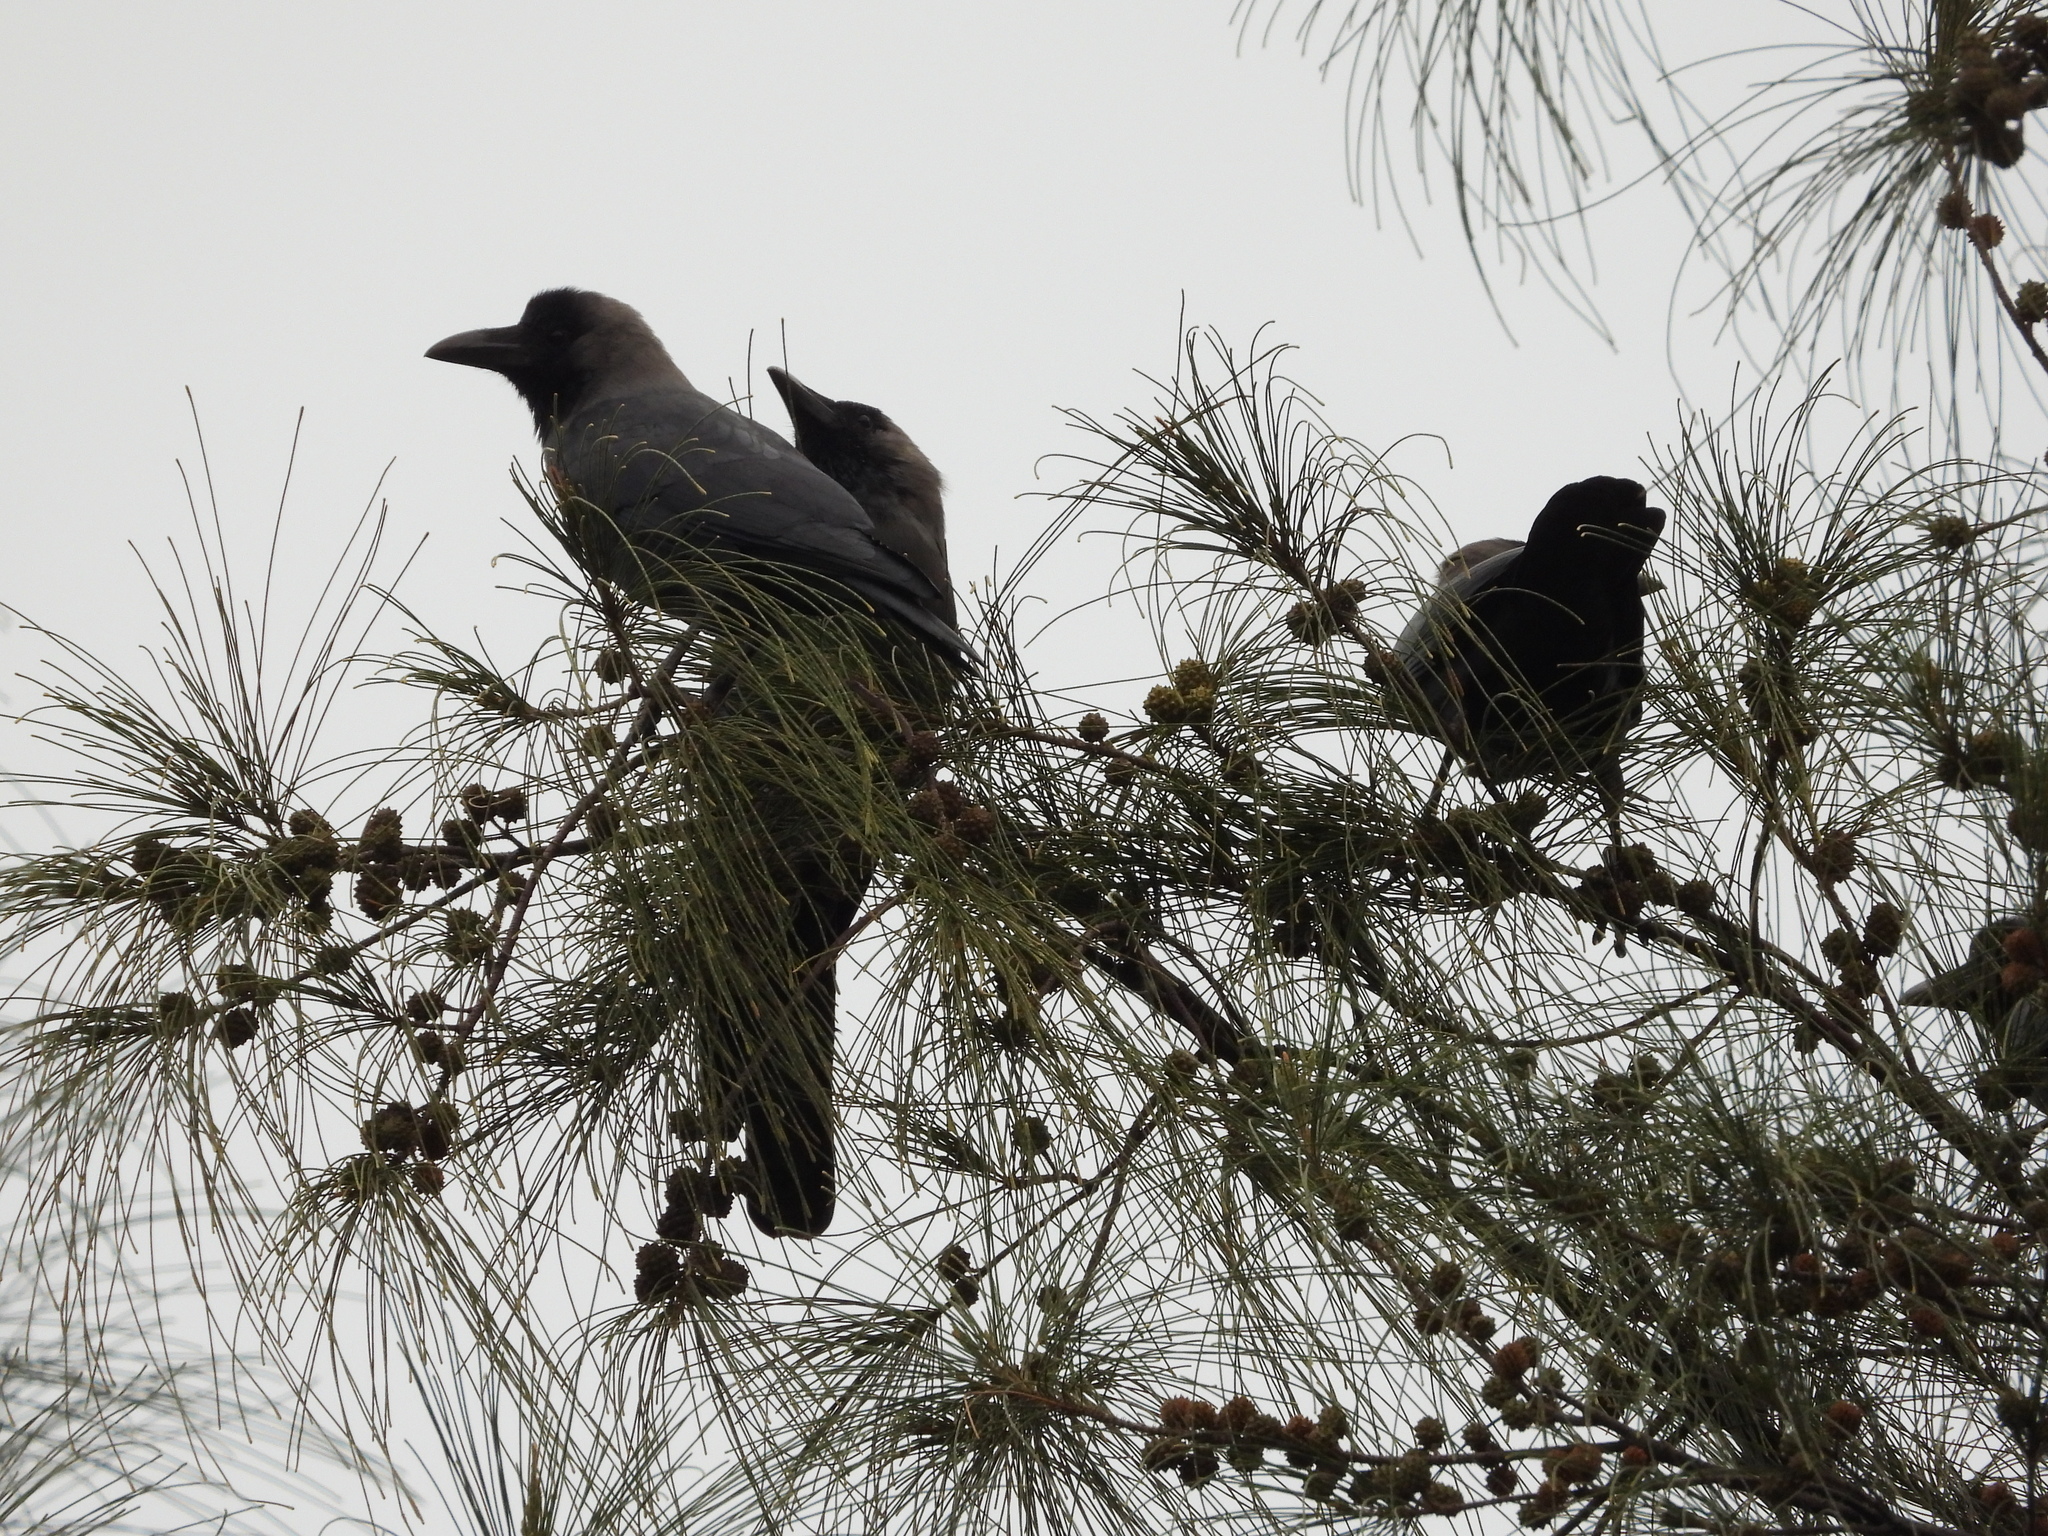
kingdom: Animalia
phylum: Chordata
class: Aves
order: Passeriformes
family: Corvidae
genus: Corvus
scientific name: Corvus splendens
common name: House crow
